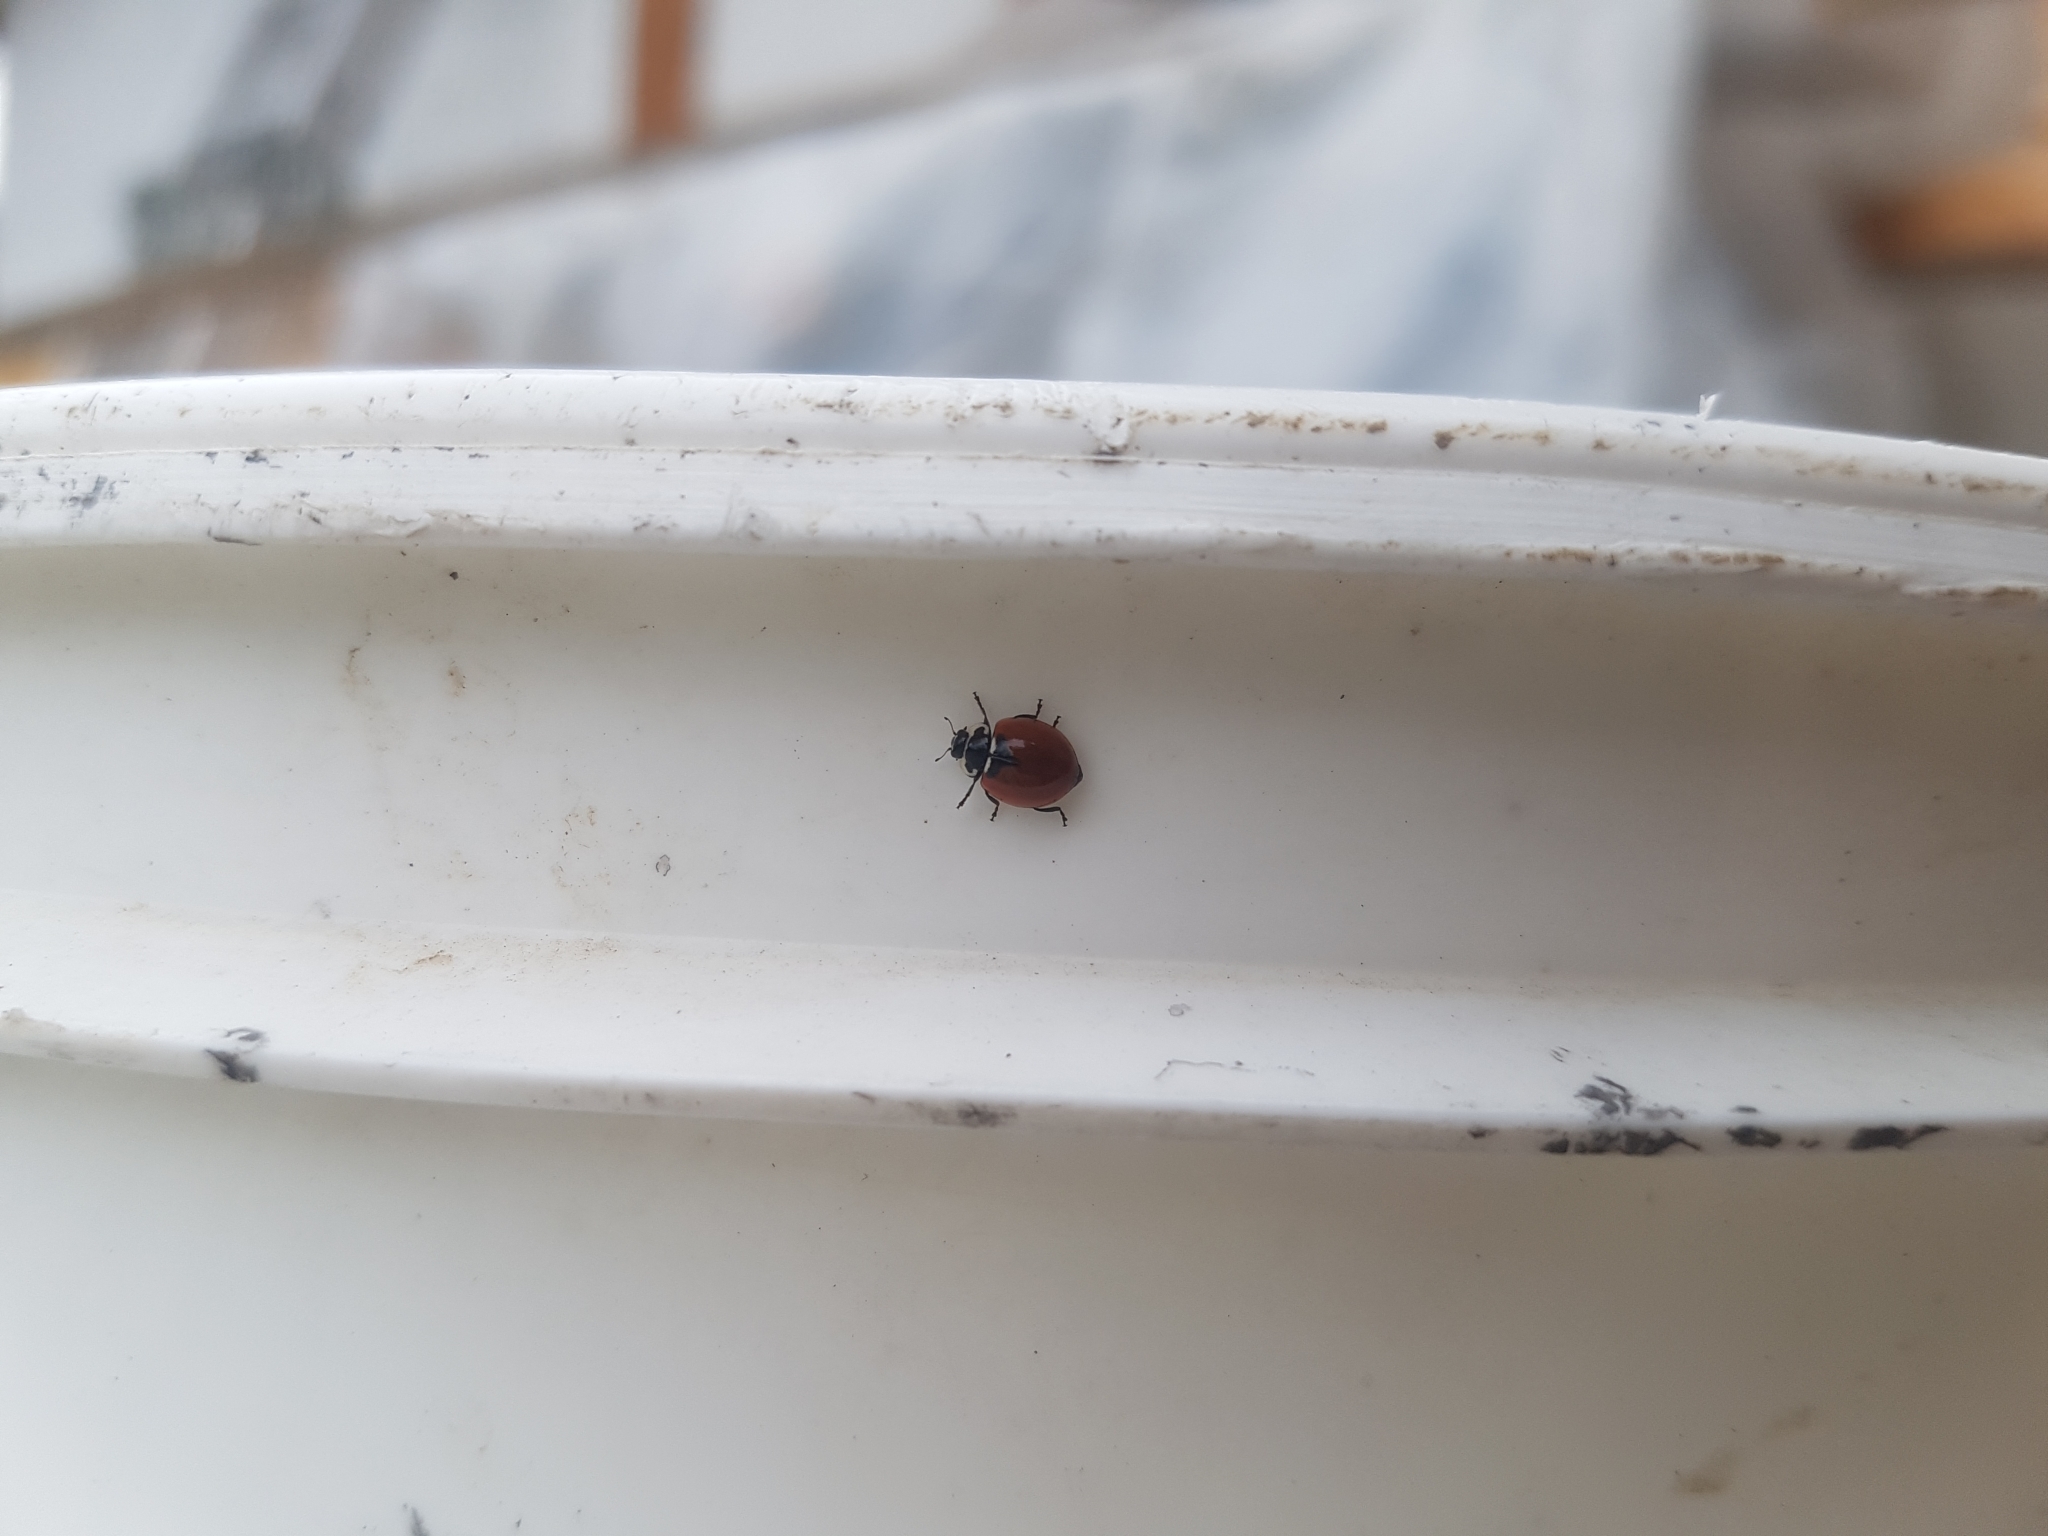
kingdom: Animalia
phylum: Arthropoda
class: Insecta
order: Coleoptera
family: Coccinellidae
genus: Adalia
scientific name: Adalia deficiens
